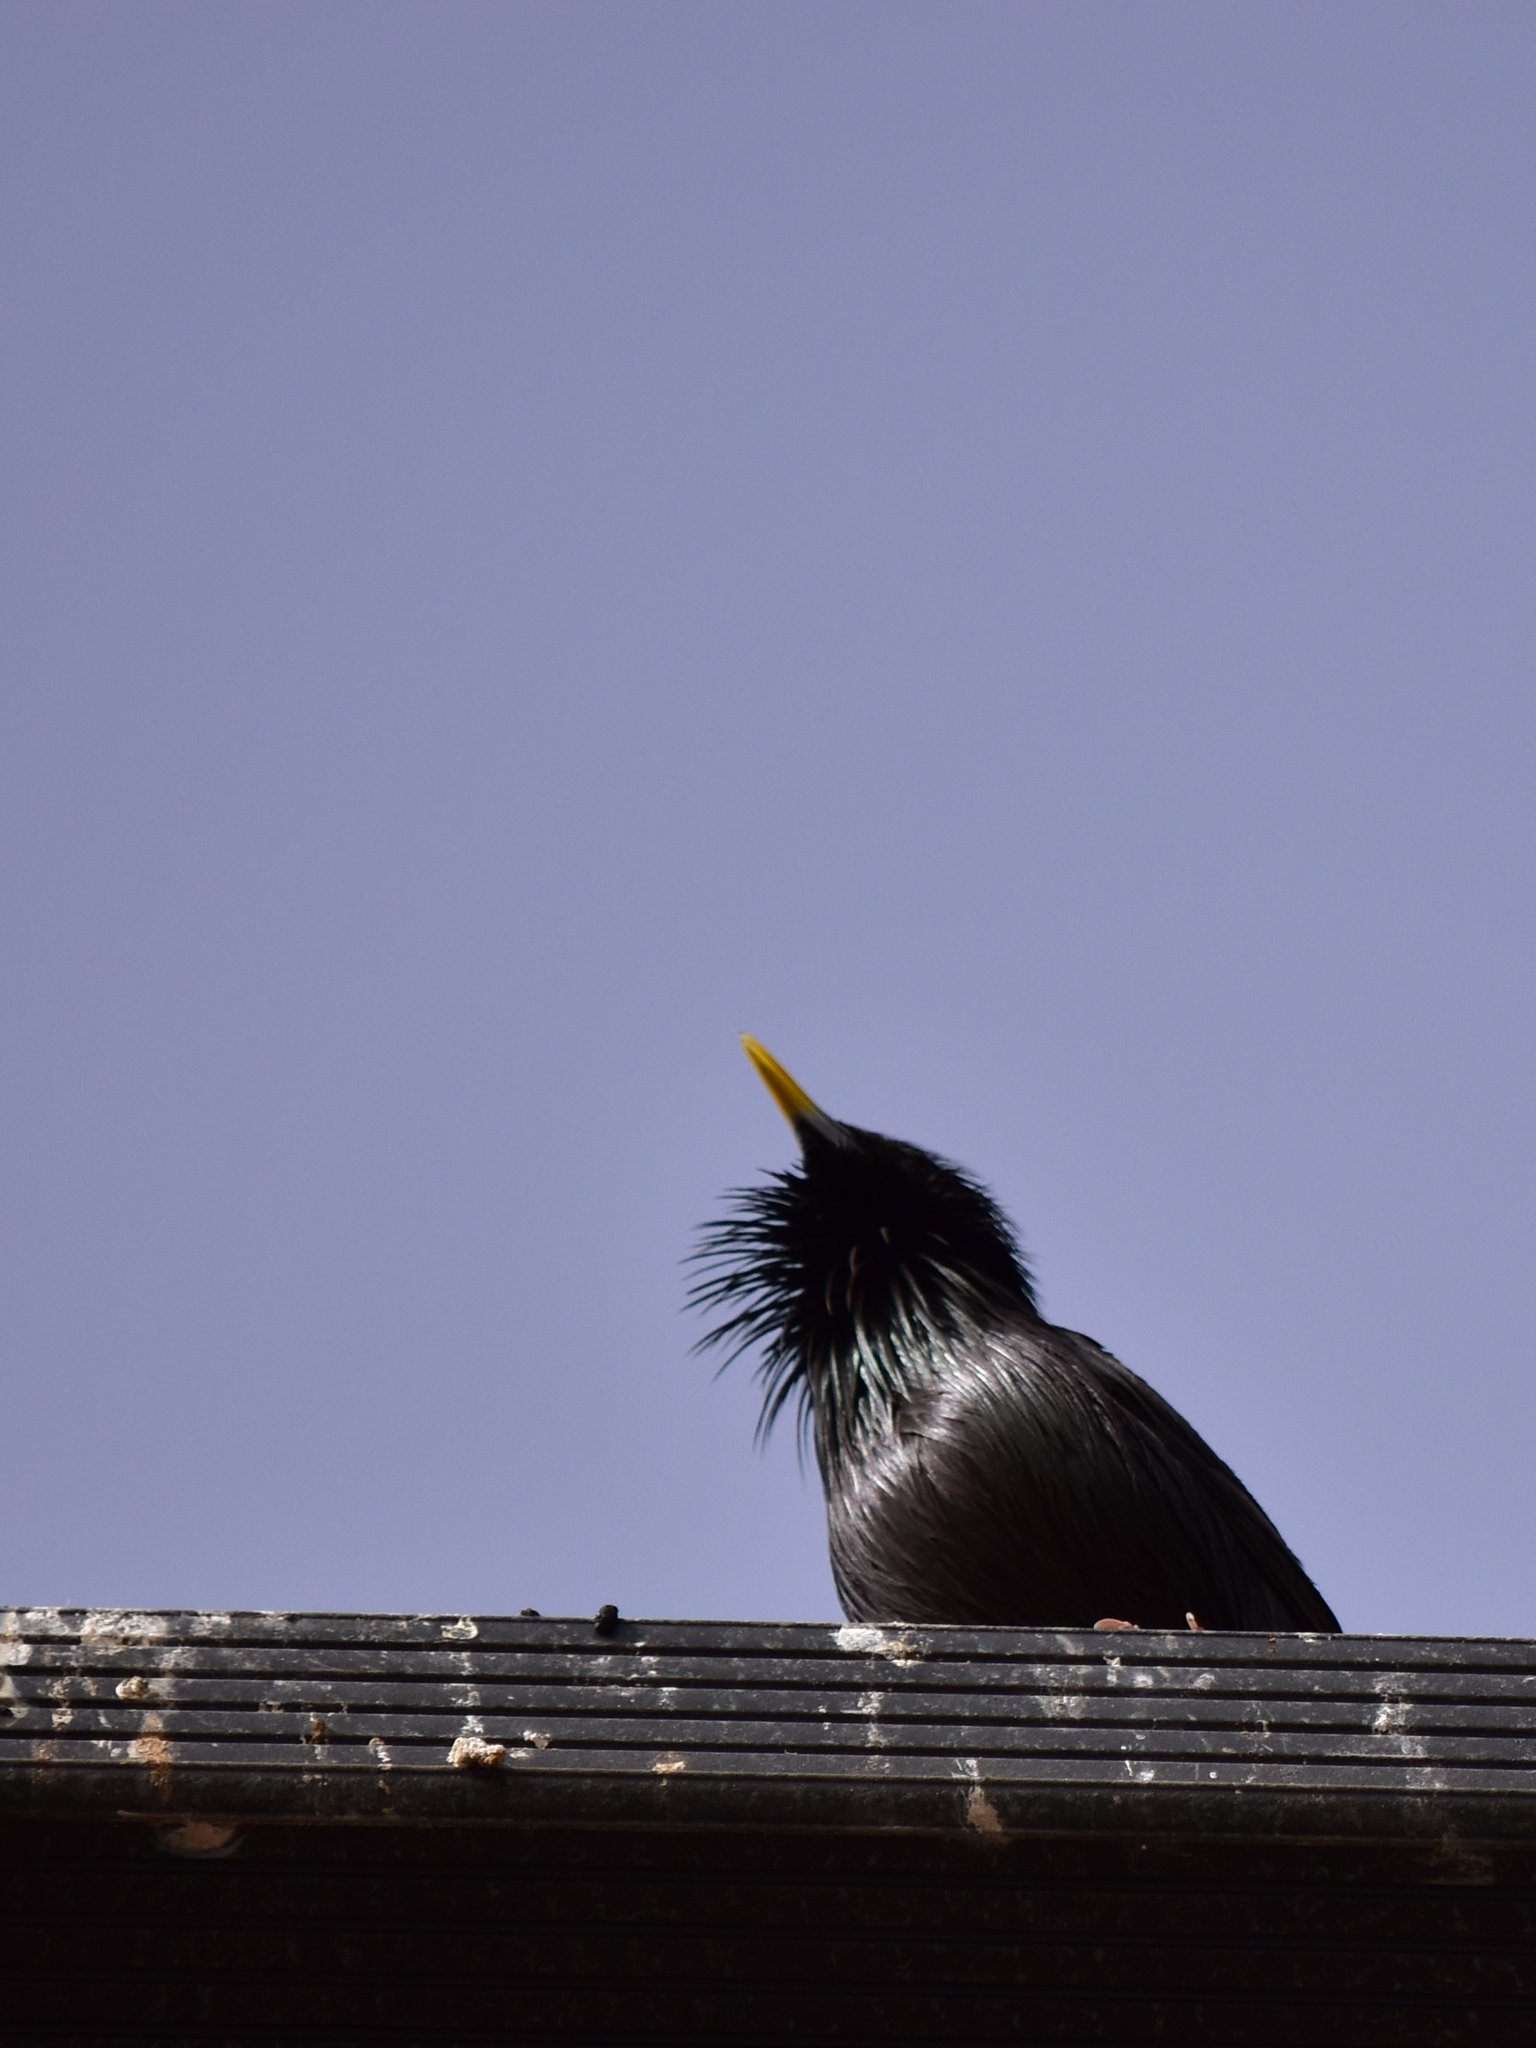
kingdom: Animalia
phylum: Chordata
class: Aves
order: Passeriformes
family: Sturnidae
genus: Sturnus
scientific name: Sturnus unicolor
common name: Spotless starling
